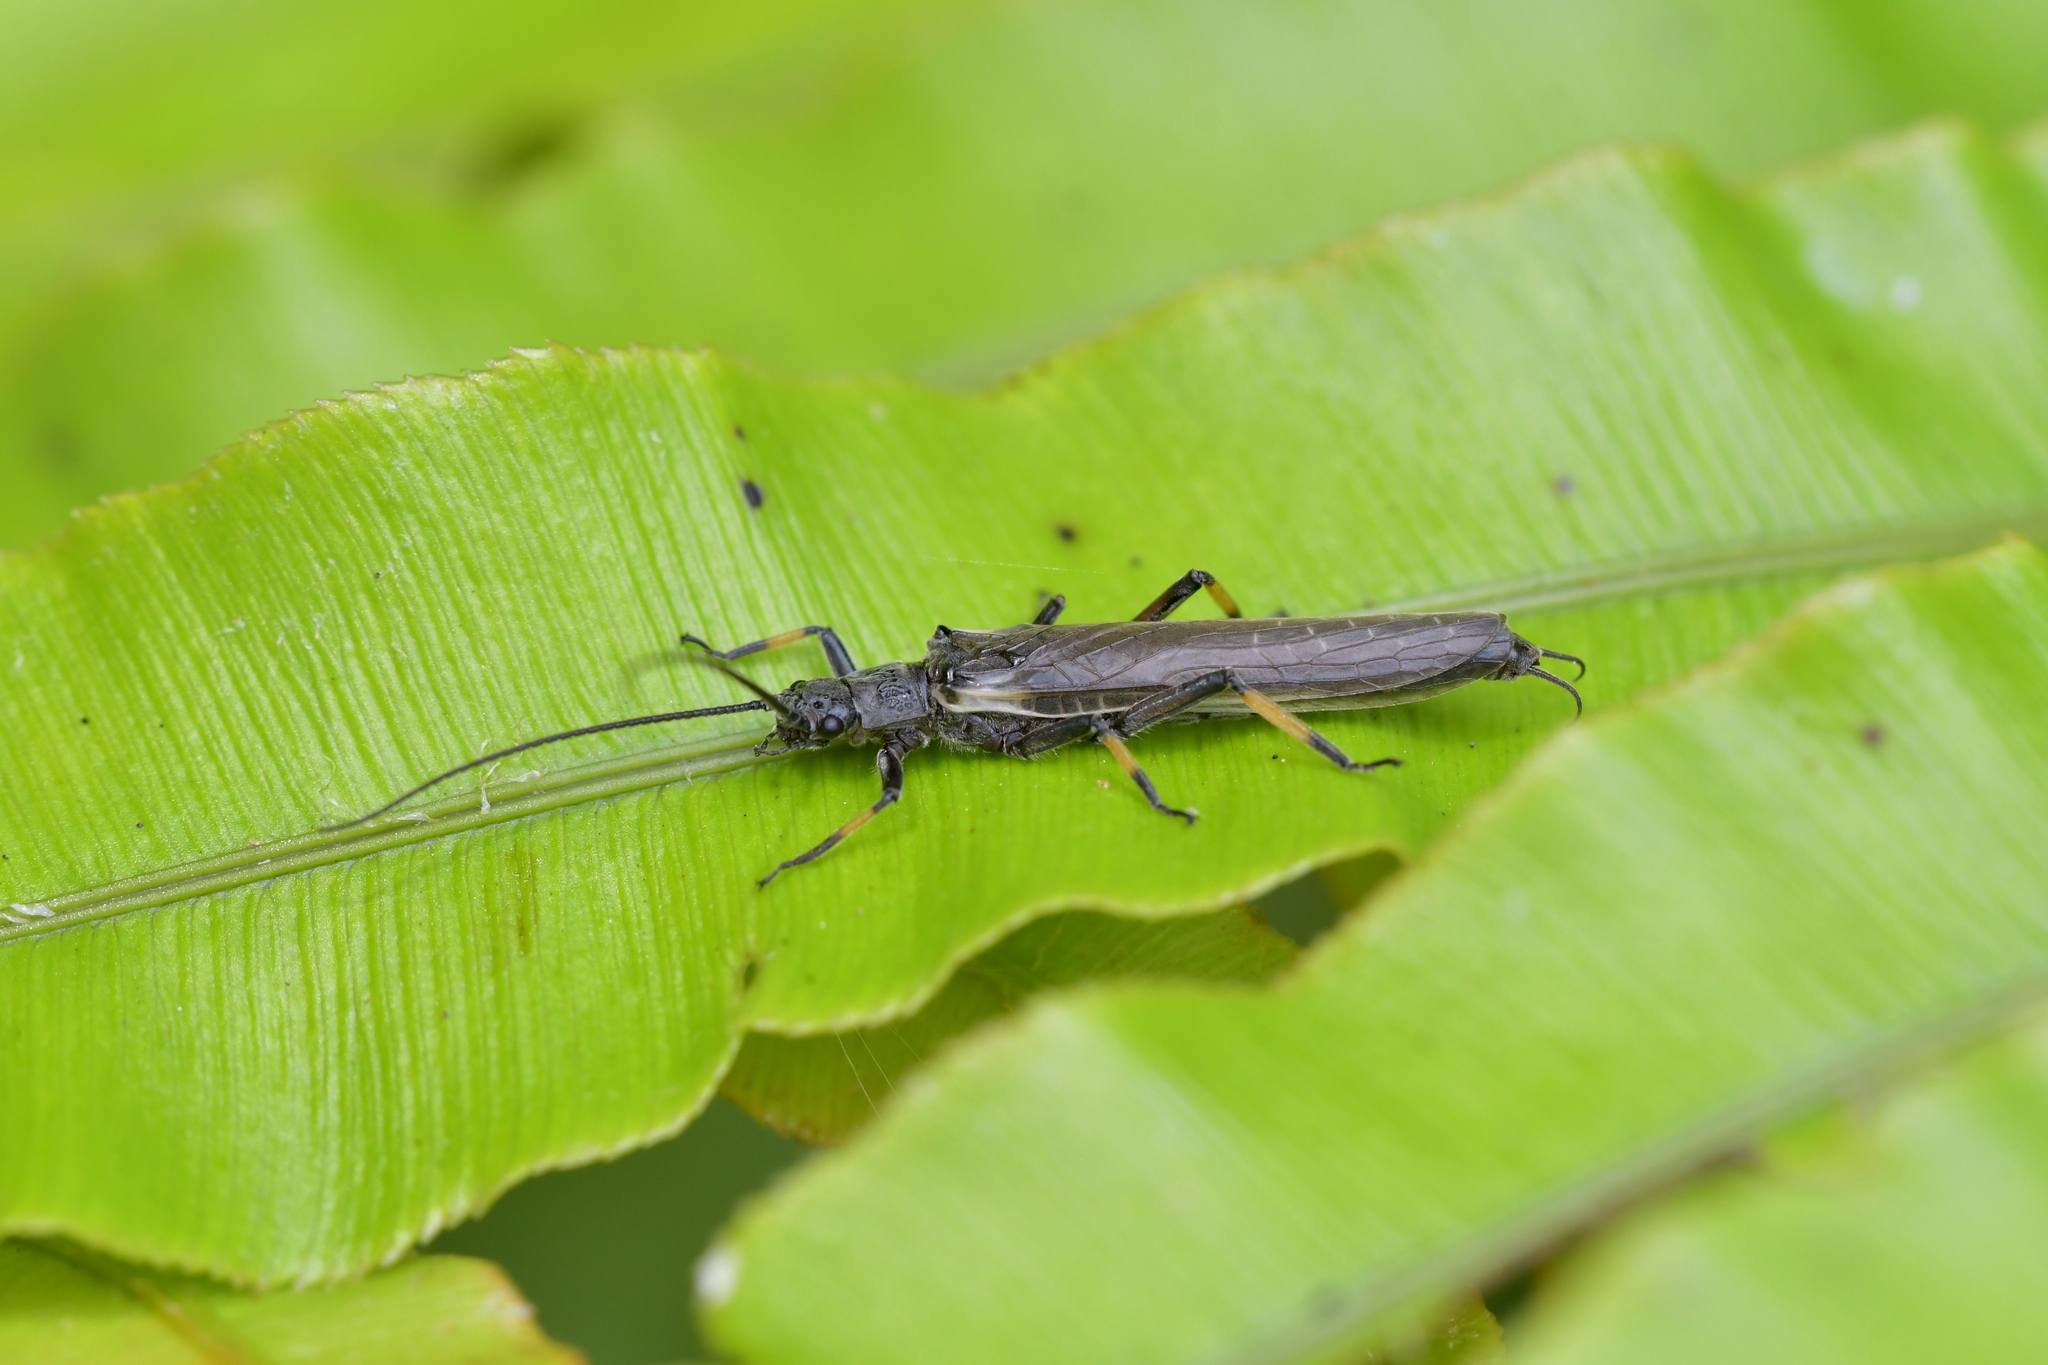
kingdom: Animalia
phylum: Arthropoda
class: Insecta
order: Plecoptera
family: Austroperlidae
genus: Austroperla
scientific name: Austroperla cyrene
